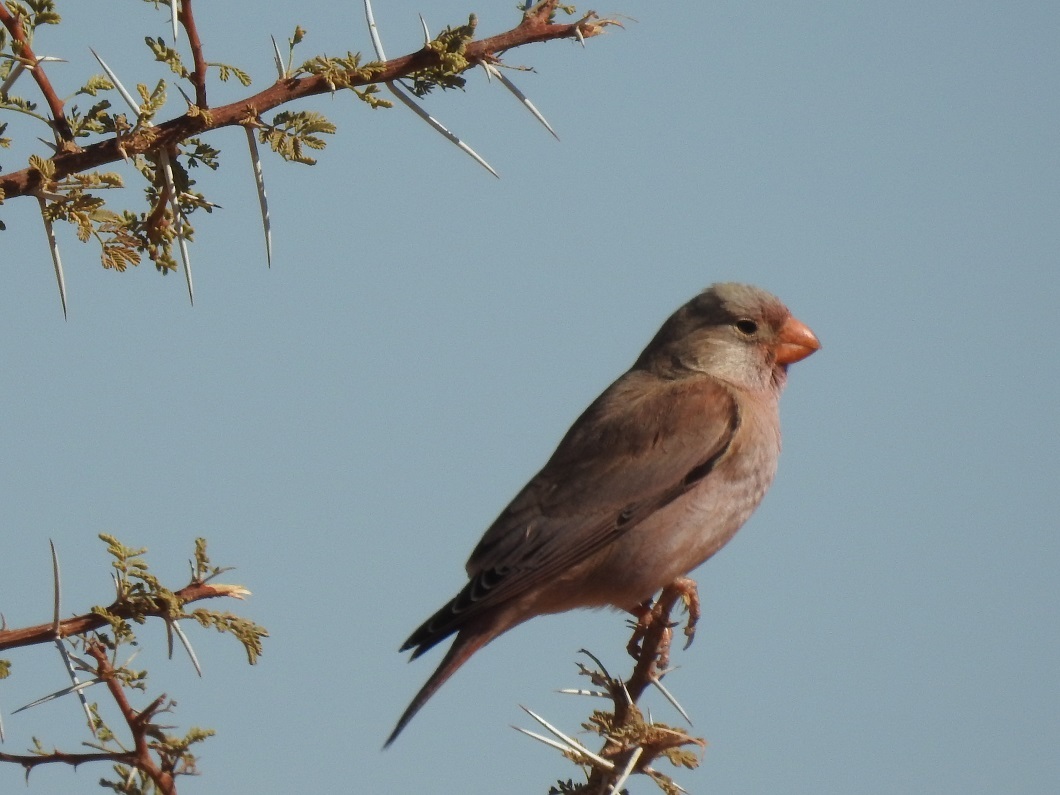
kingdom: Animalia
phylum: Chordata
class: Aves
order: Passeriformes
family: Fringillidae
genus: Bucanetes
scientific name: Bucanetes githagineus
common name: Trumpeter finch
